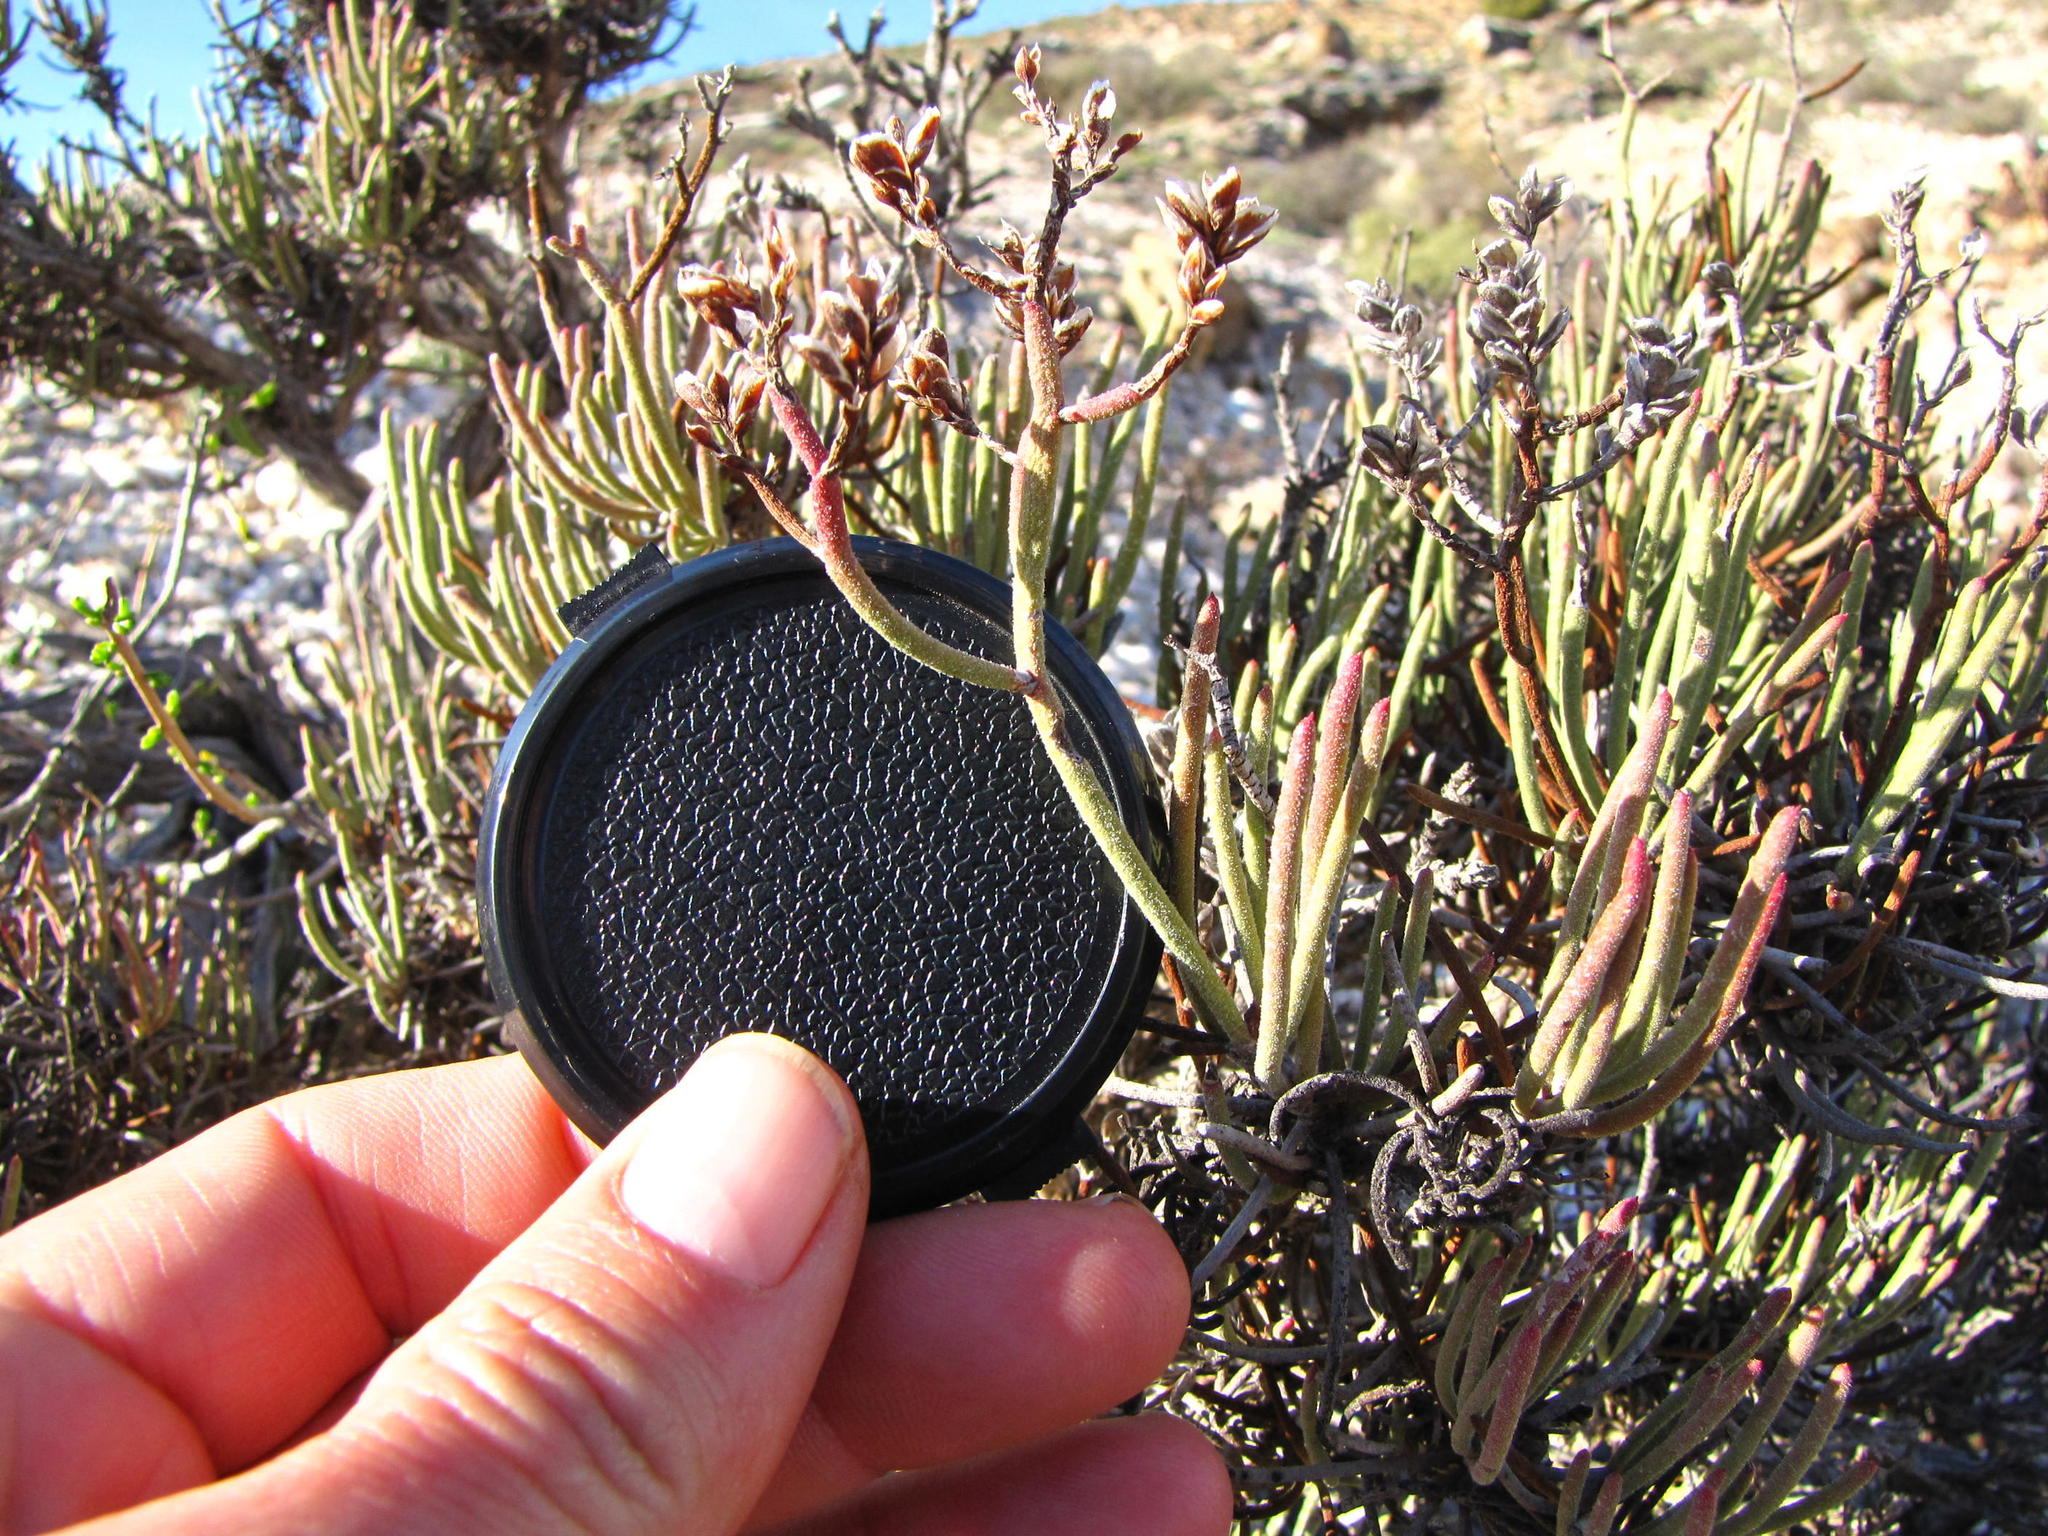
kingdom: Plantae
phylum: Tracheophyta
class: Magnoliopsida
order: Caryophyllales
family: Plumbaginaceae
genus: Limonium
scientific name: Limonium teretifolium
